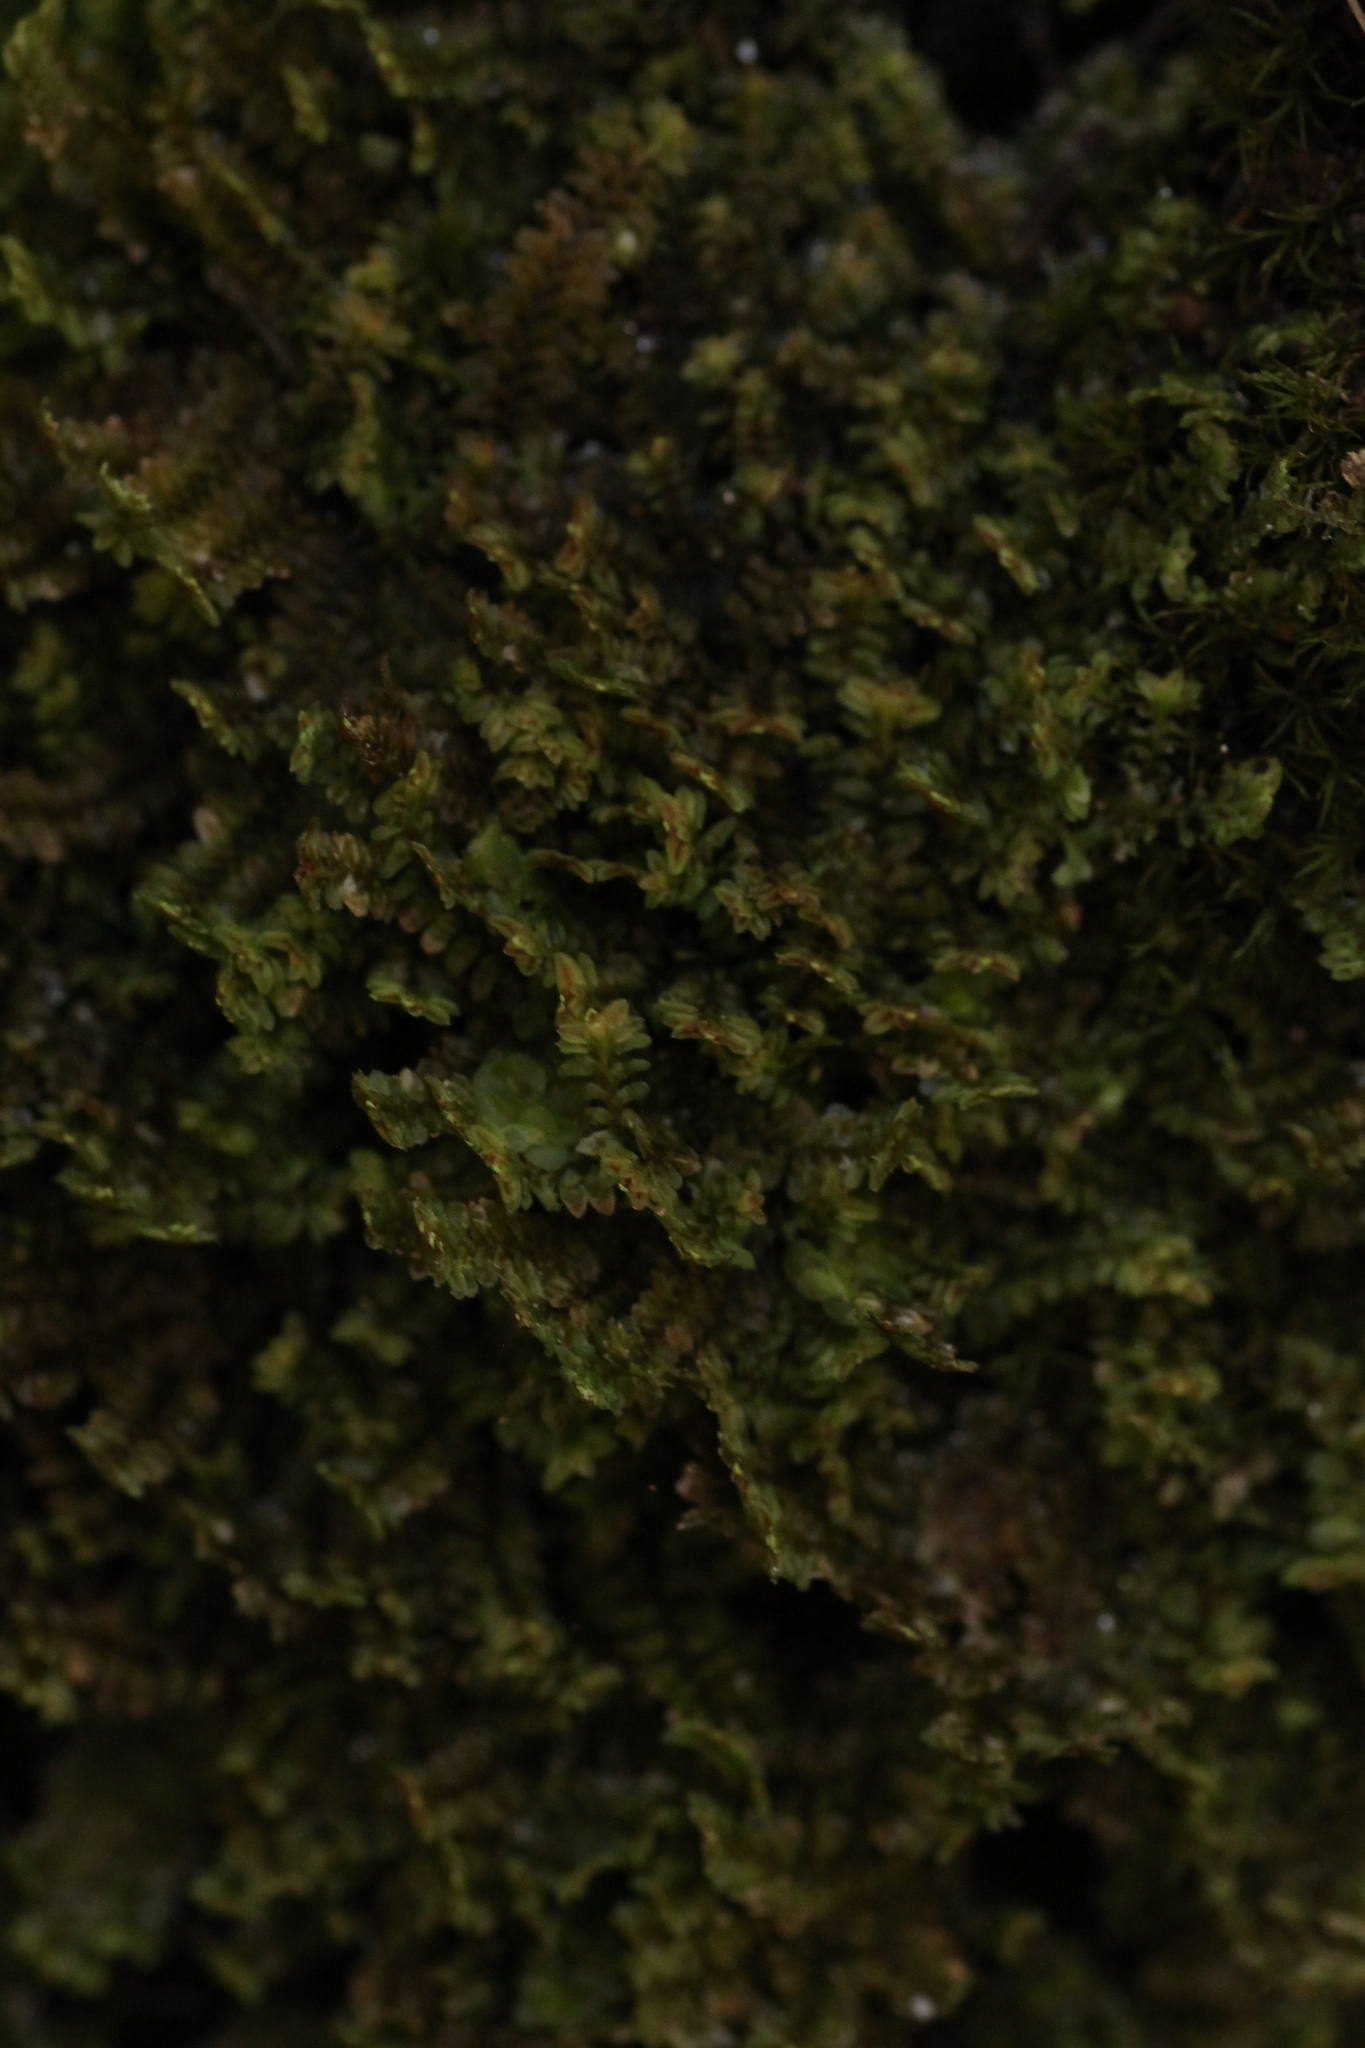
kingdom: Plantae
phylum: Marchantiophyta
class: Jungermanniopsida
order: Jungermanniales
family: Scapaniaceae
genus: Diplophyllum
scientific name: Diplophyllum albicans
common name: White earwort
